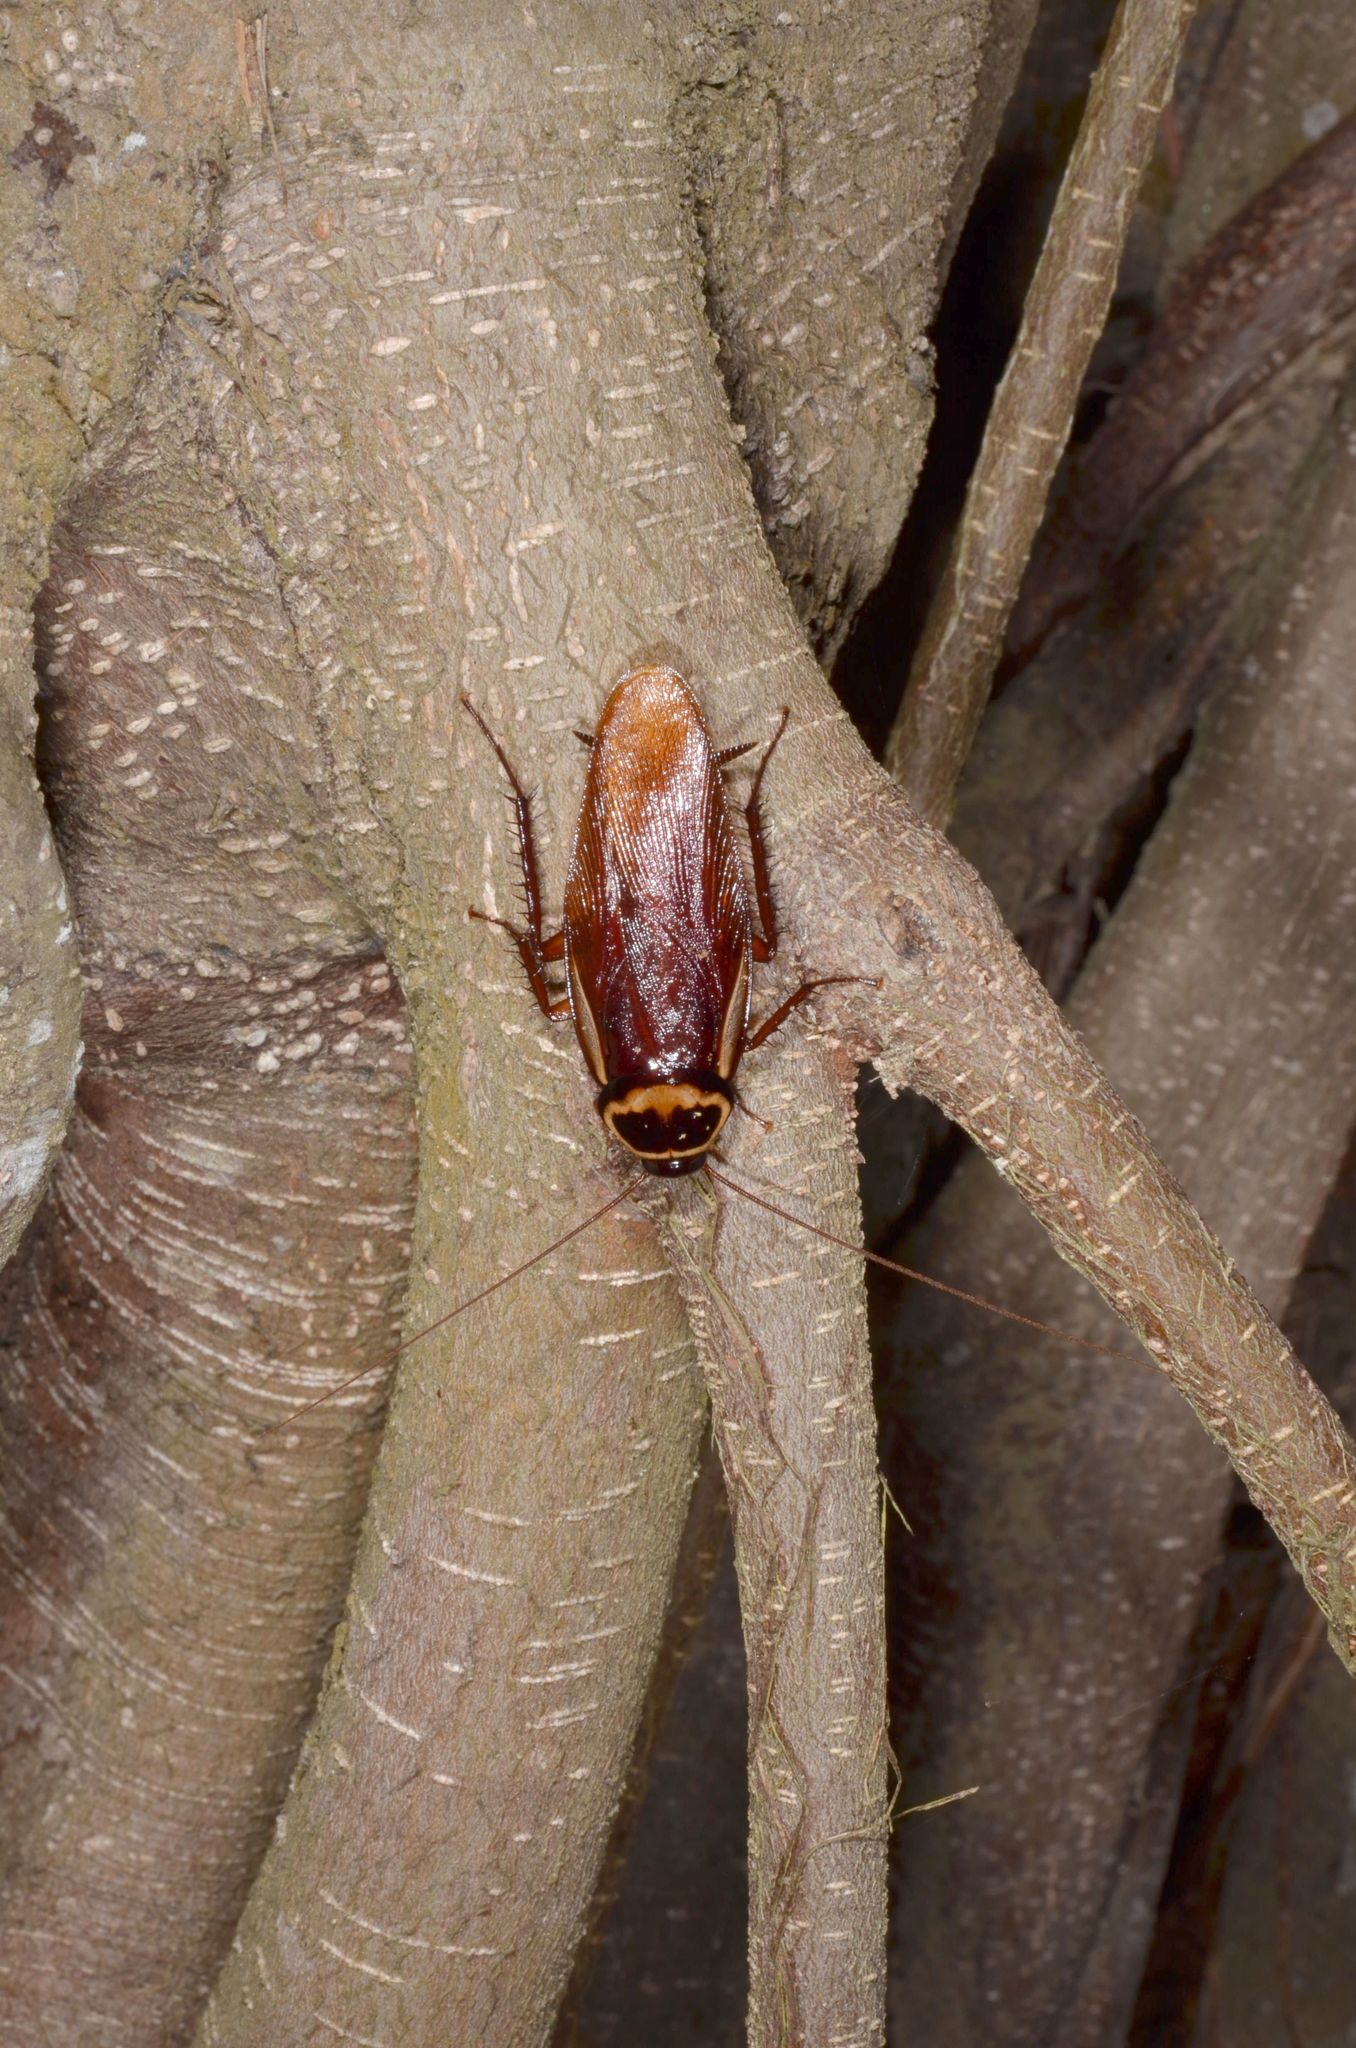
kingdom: Animalia
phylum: Arthropoda
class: Insecta
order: Blattodea
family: Blattidae
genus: Periplaneta
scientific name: Periplaneta australasiae
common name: Australian cockroach
